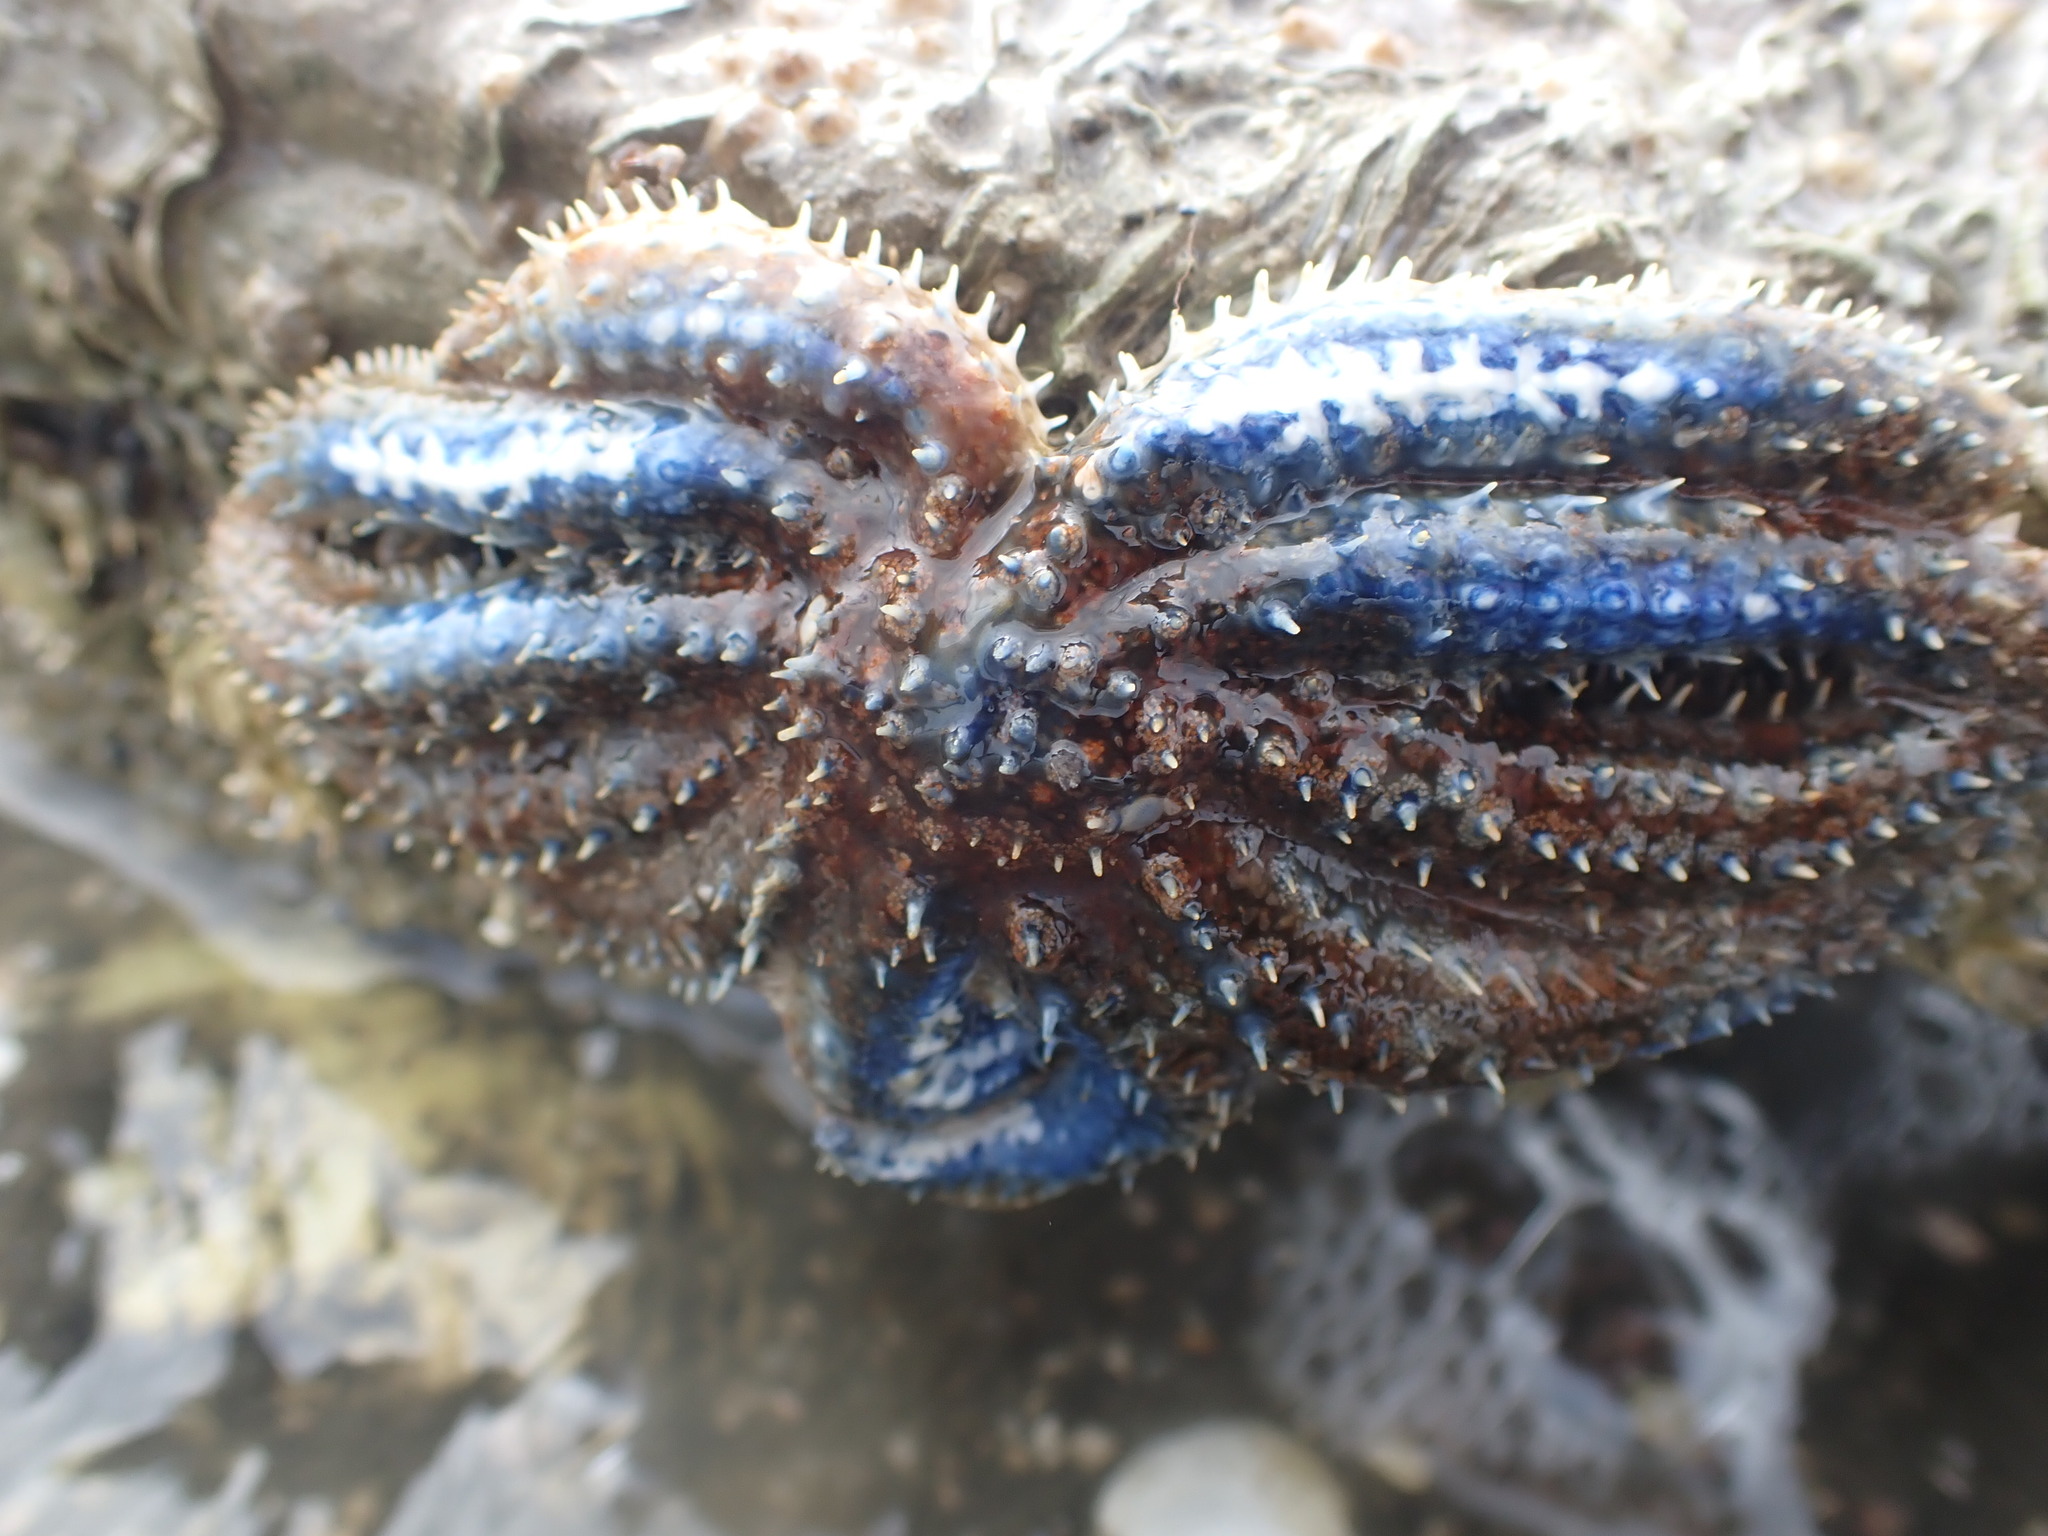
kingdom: Animalia
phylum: Echinodermata
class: Asteroidea
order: Forcipulatida
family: Asteriidae
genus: Coscinasterias
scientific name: Coscinasterias muricata
